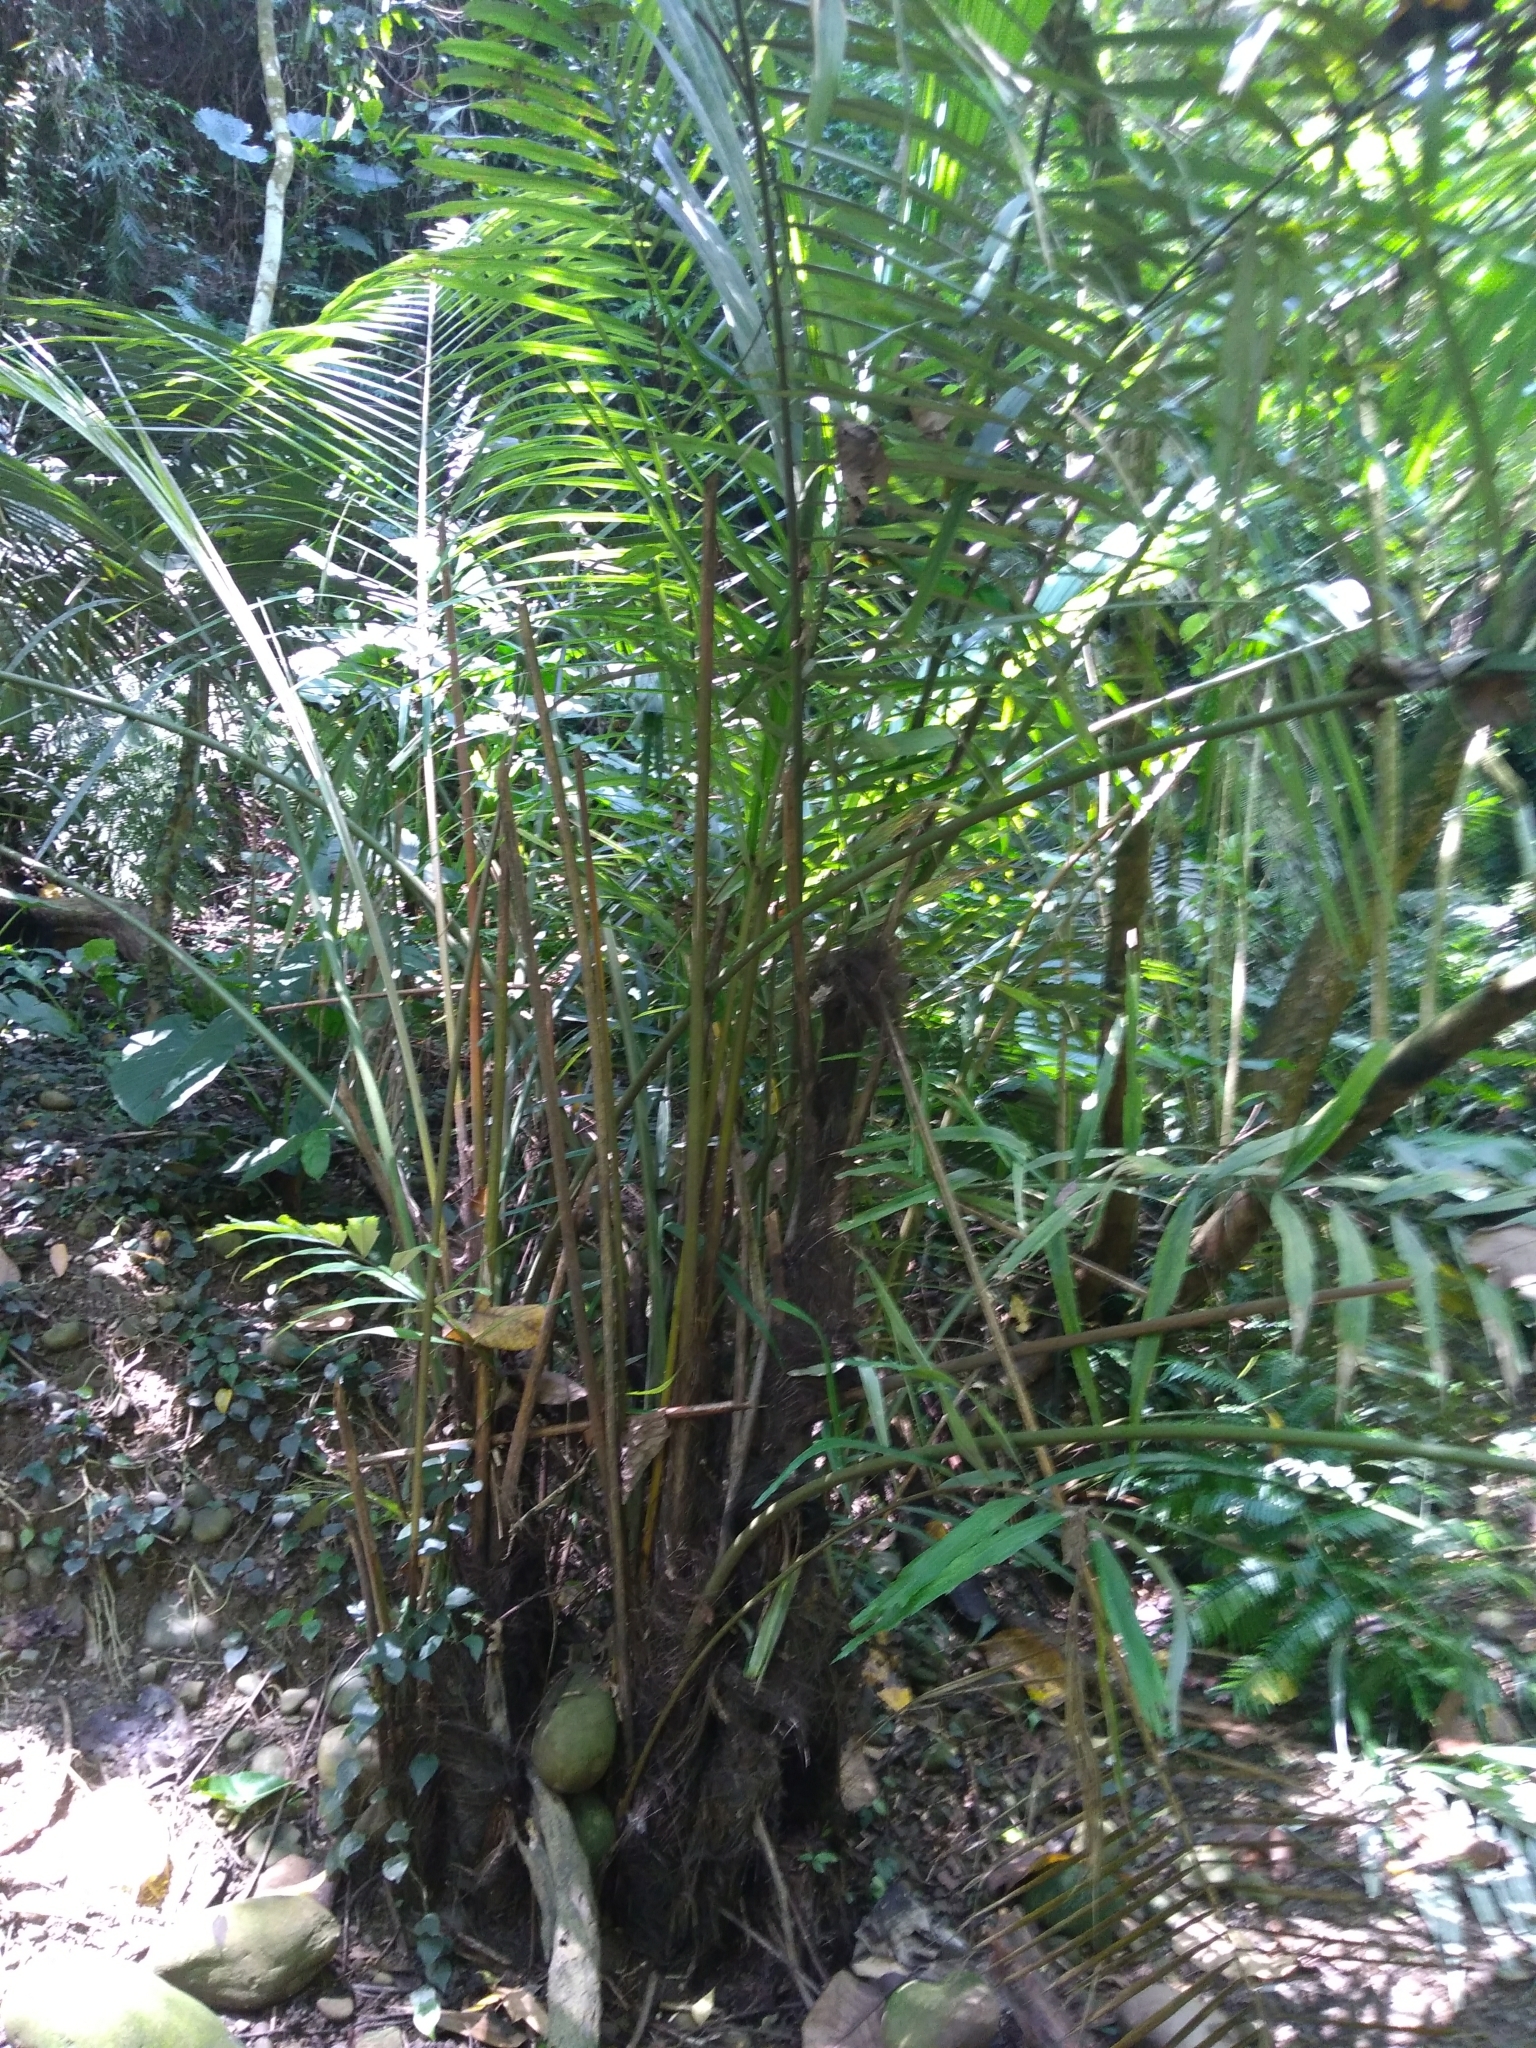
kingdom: Plantae
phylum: Tracheophyta
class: Liliopsida
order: Arecales
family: Arecaceae
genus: Arenga
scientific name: Arenga engleri
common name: Formosan sugar palm
